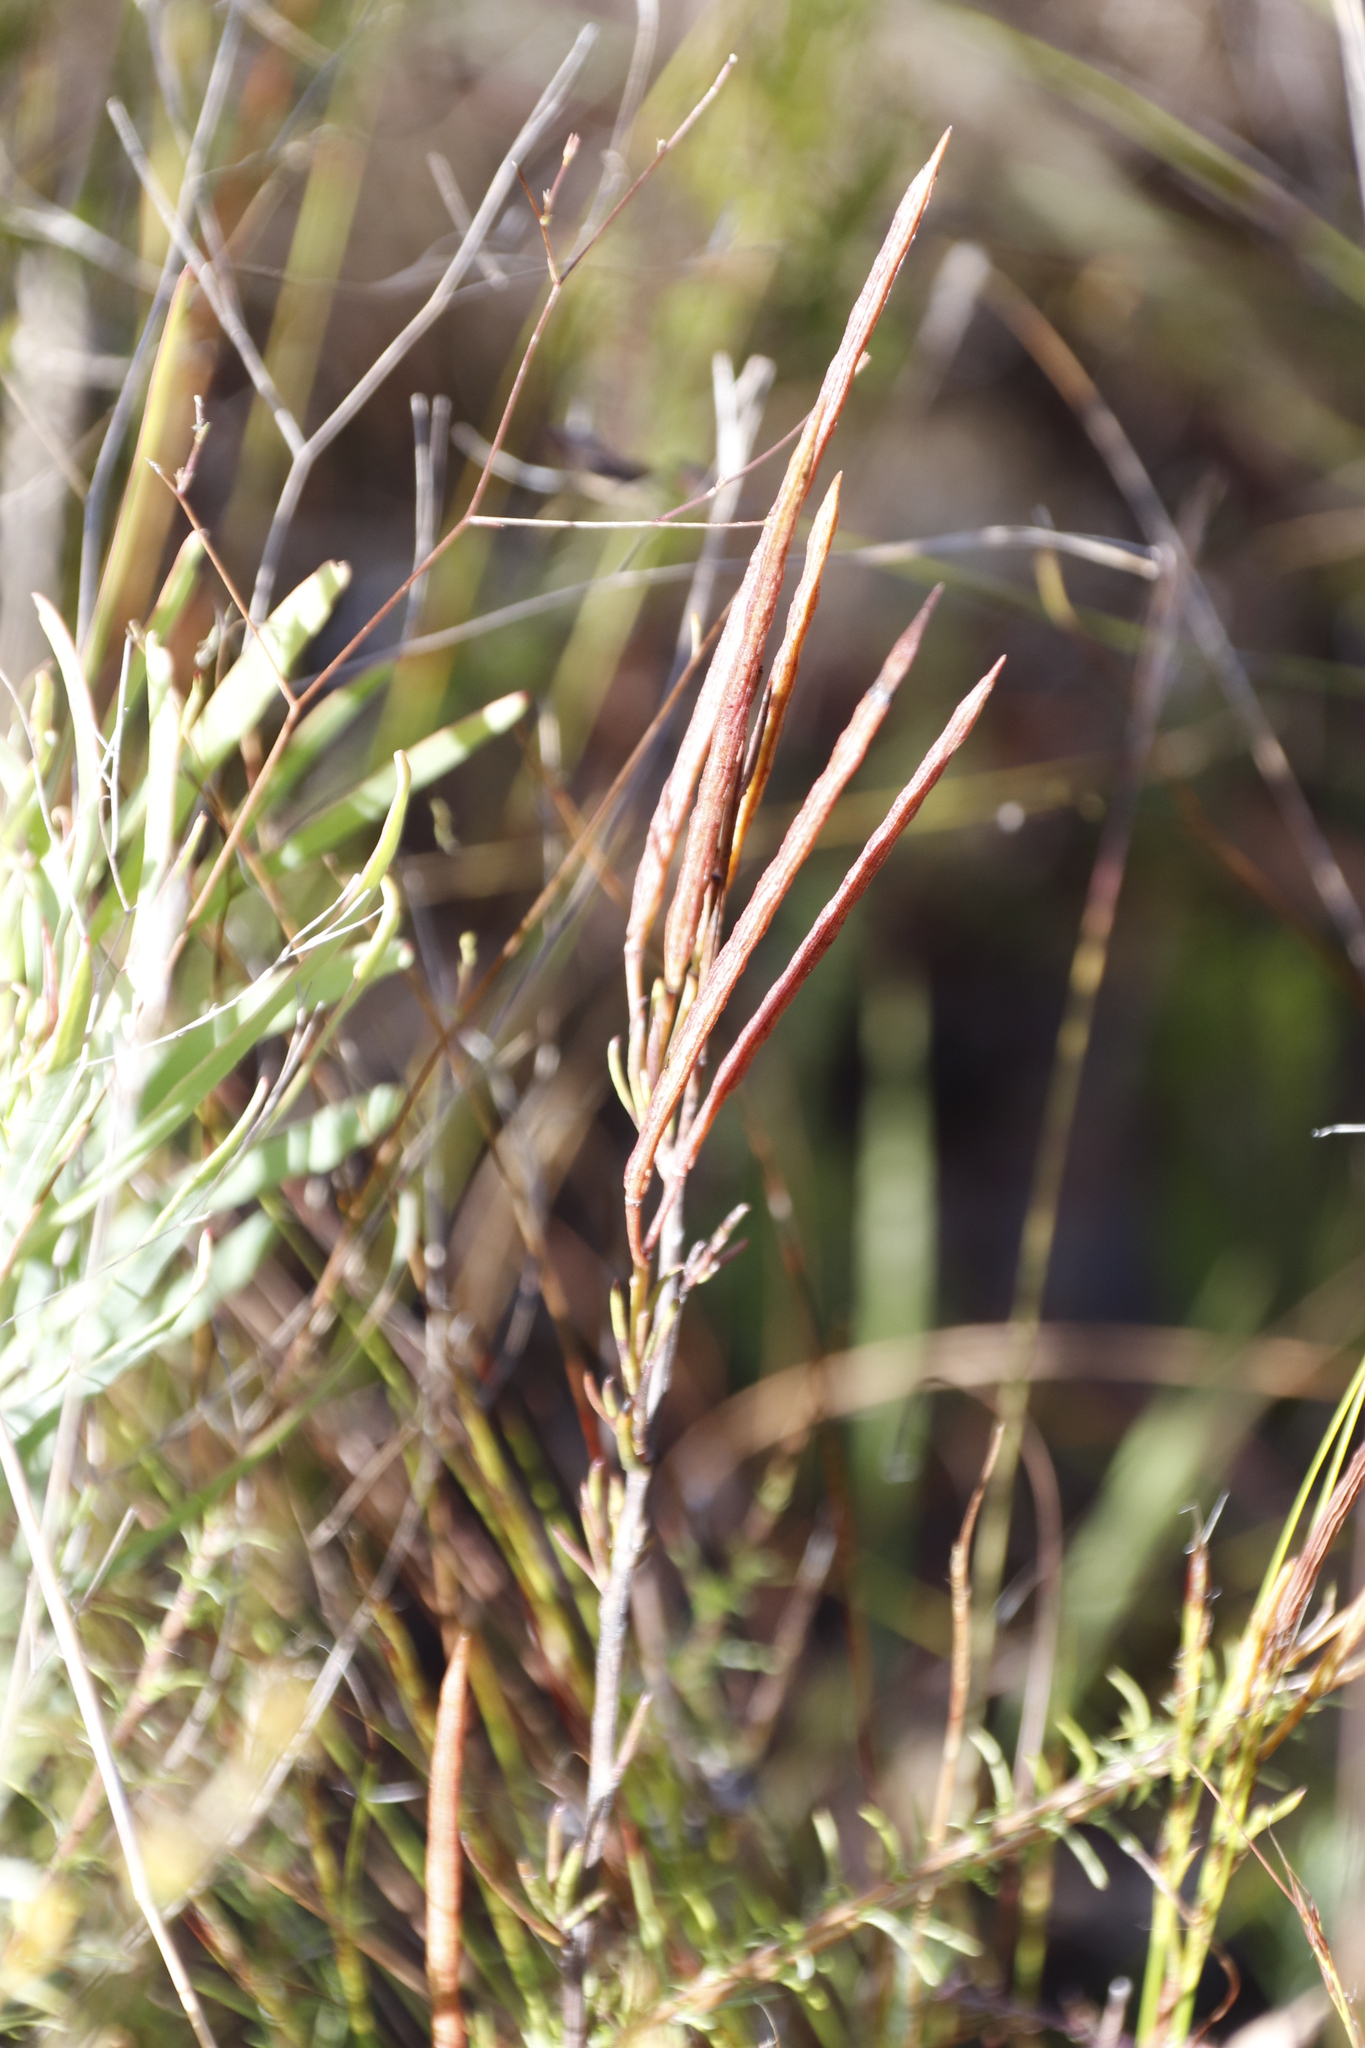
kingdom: Plantae
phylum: Tracheophyta
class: Magnoliopsida
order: Brassicales
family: Brassicaceae
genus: Heliophila
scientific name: Heliophila scoparia
